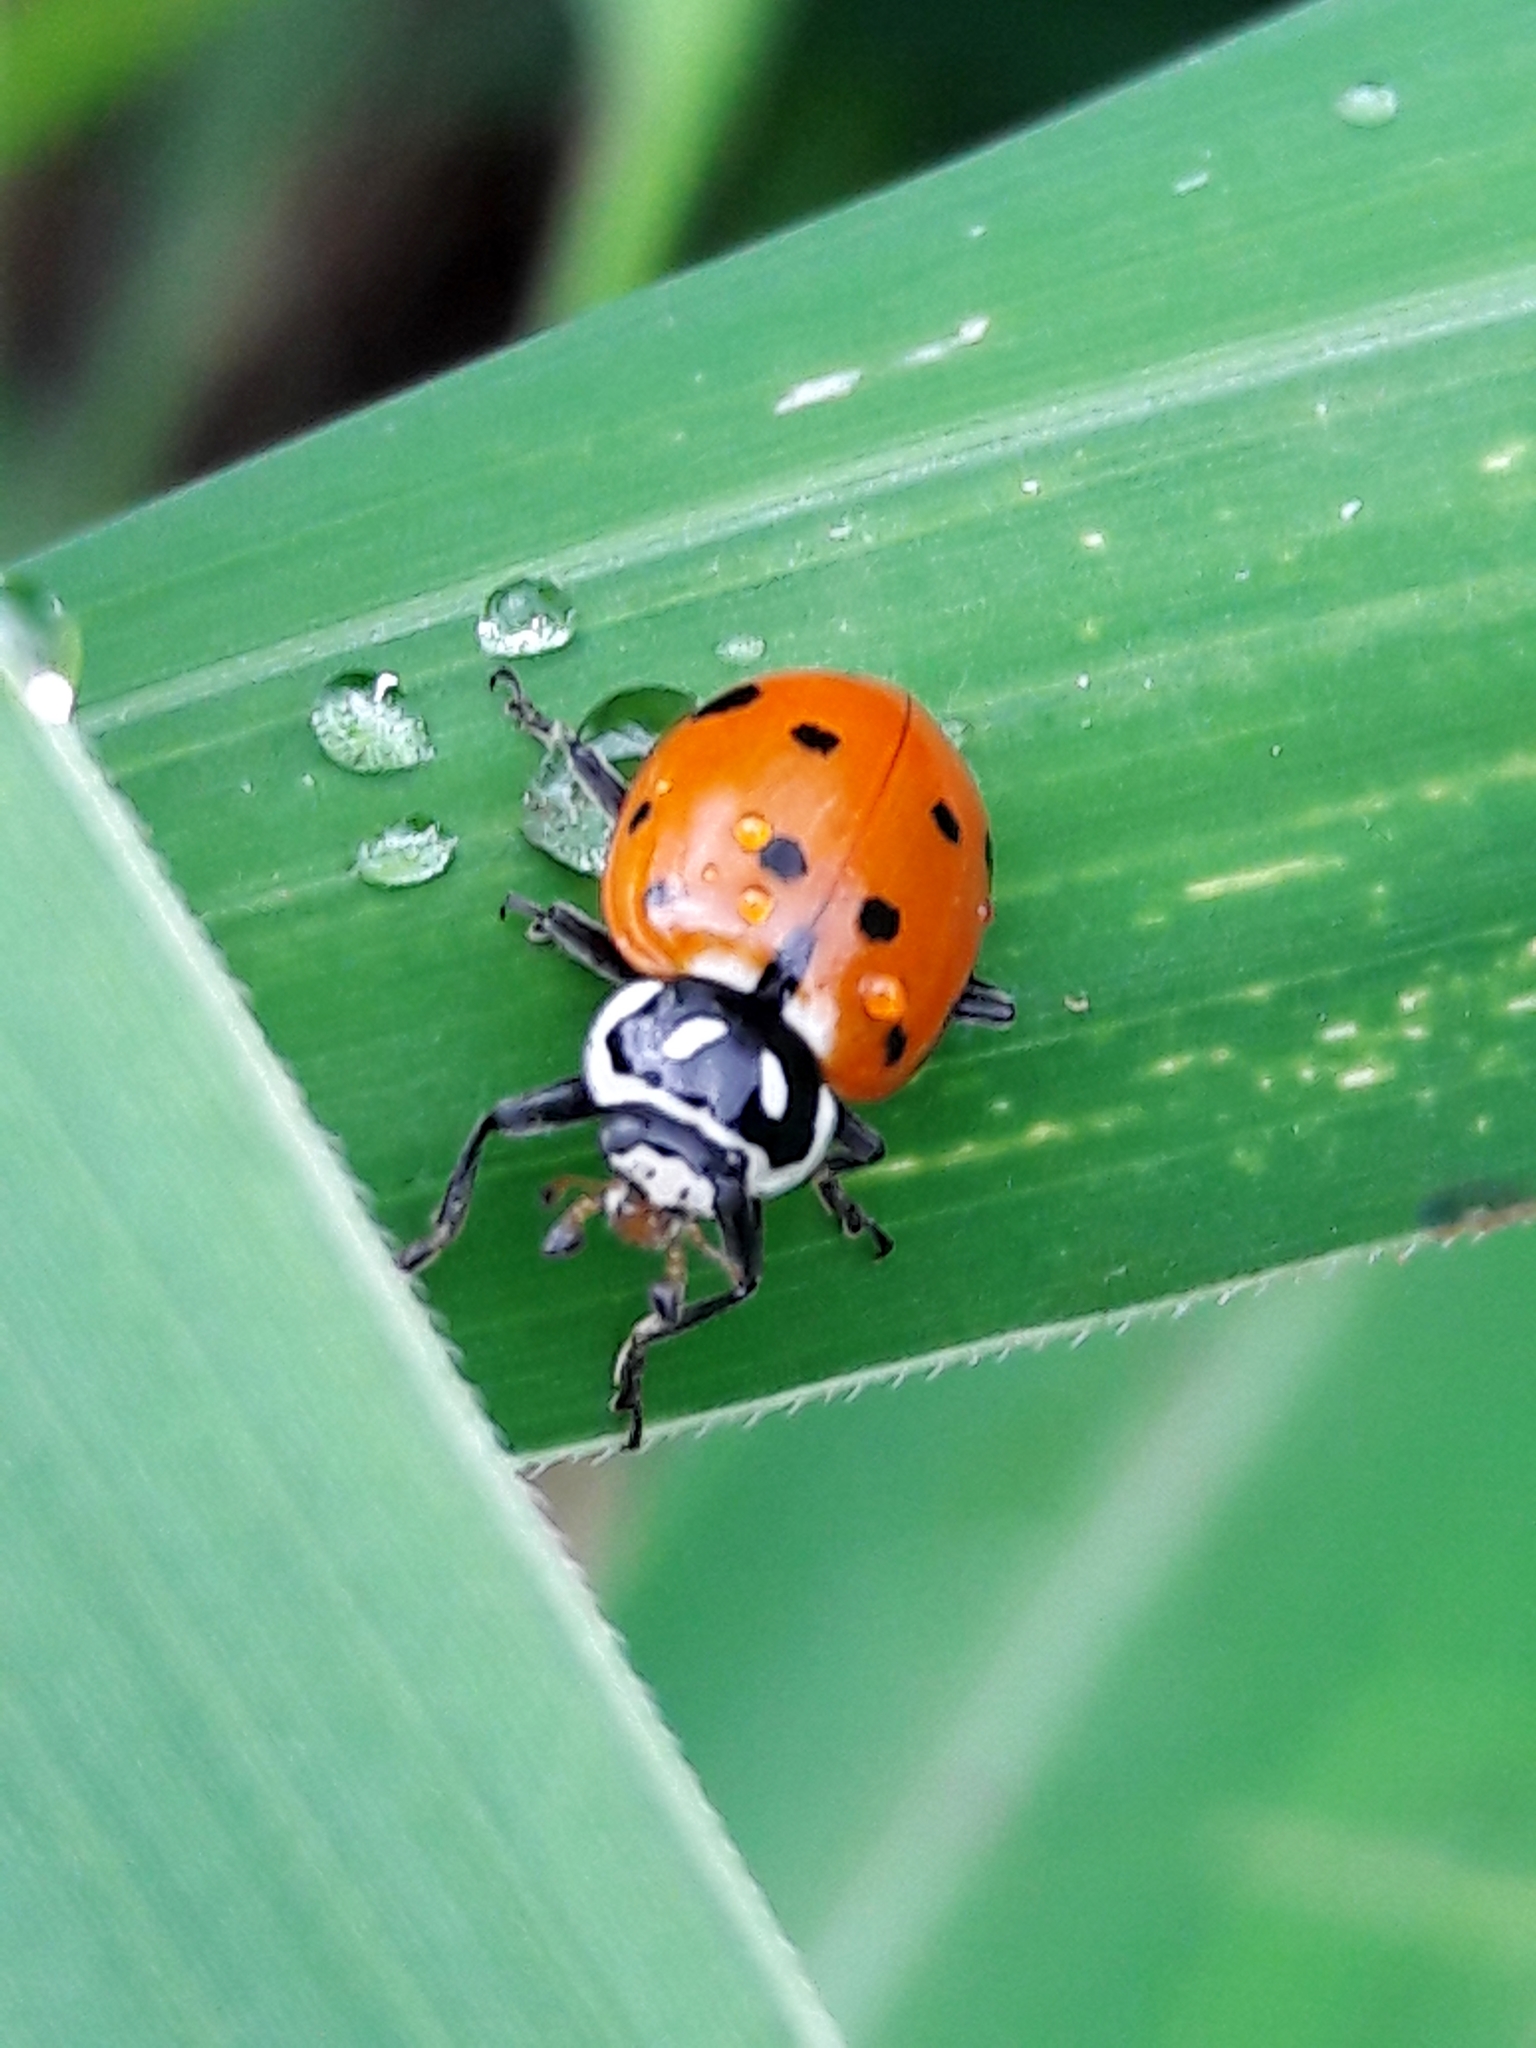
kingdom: Animalia
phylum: Arthropoda
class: Insecta
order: Coleoptera
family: Coccinellidae
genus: Hippodamia
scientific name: Hippodamia convergens
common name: Convergent lady beetle
